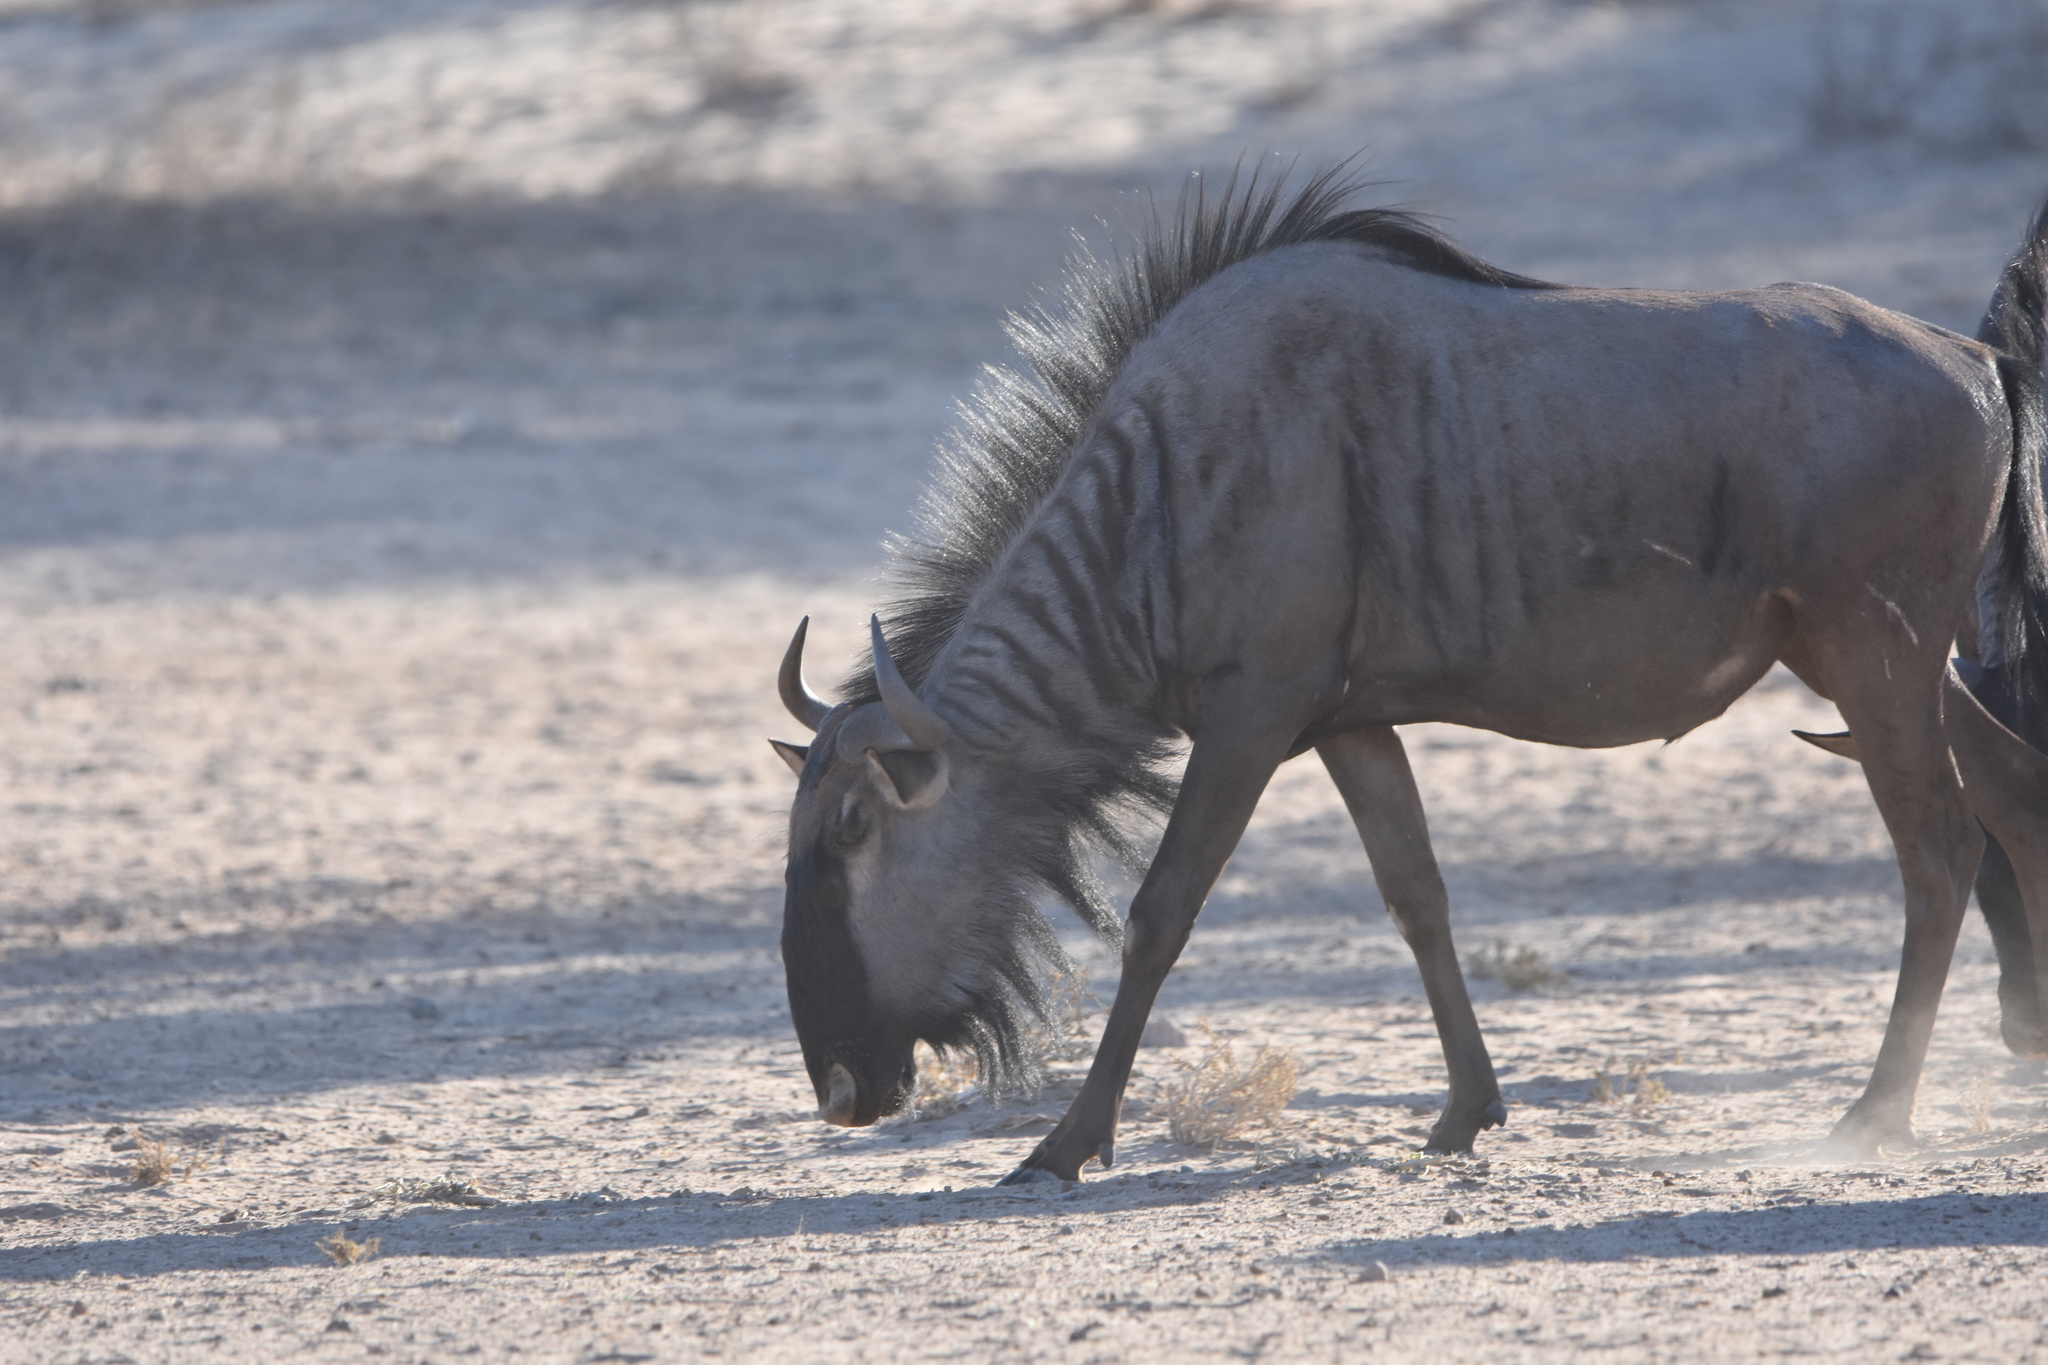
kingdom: Animalia
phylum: Chordata
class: Mammalia
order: Artiodactyla
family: Bovidae
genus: Connochaetes
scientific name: Connochaetes taurinus
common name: Blue wildebeest
